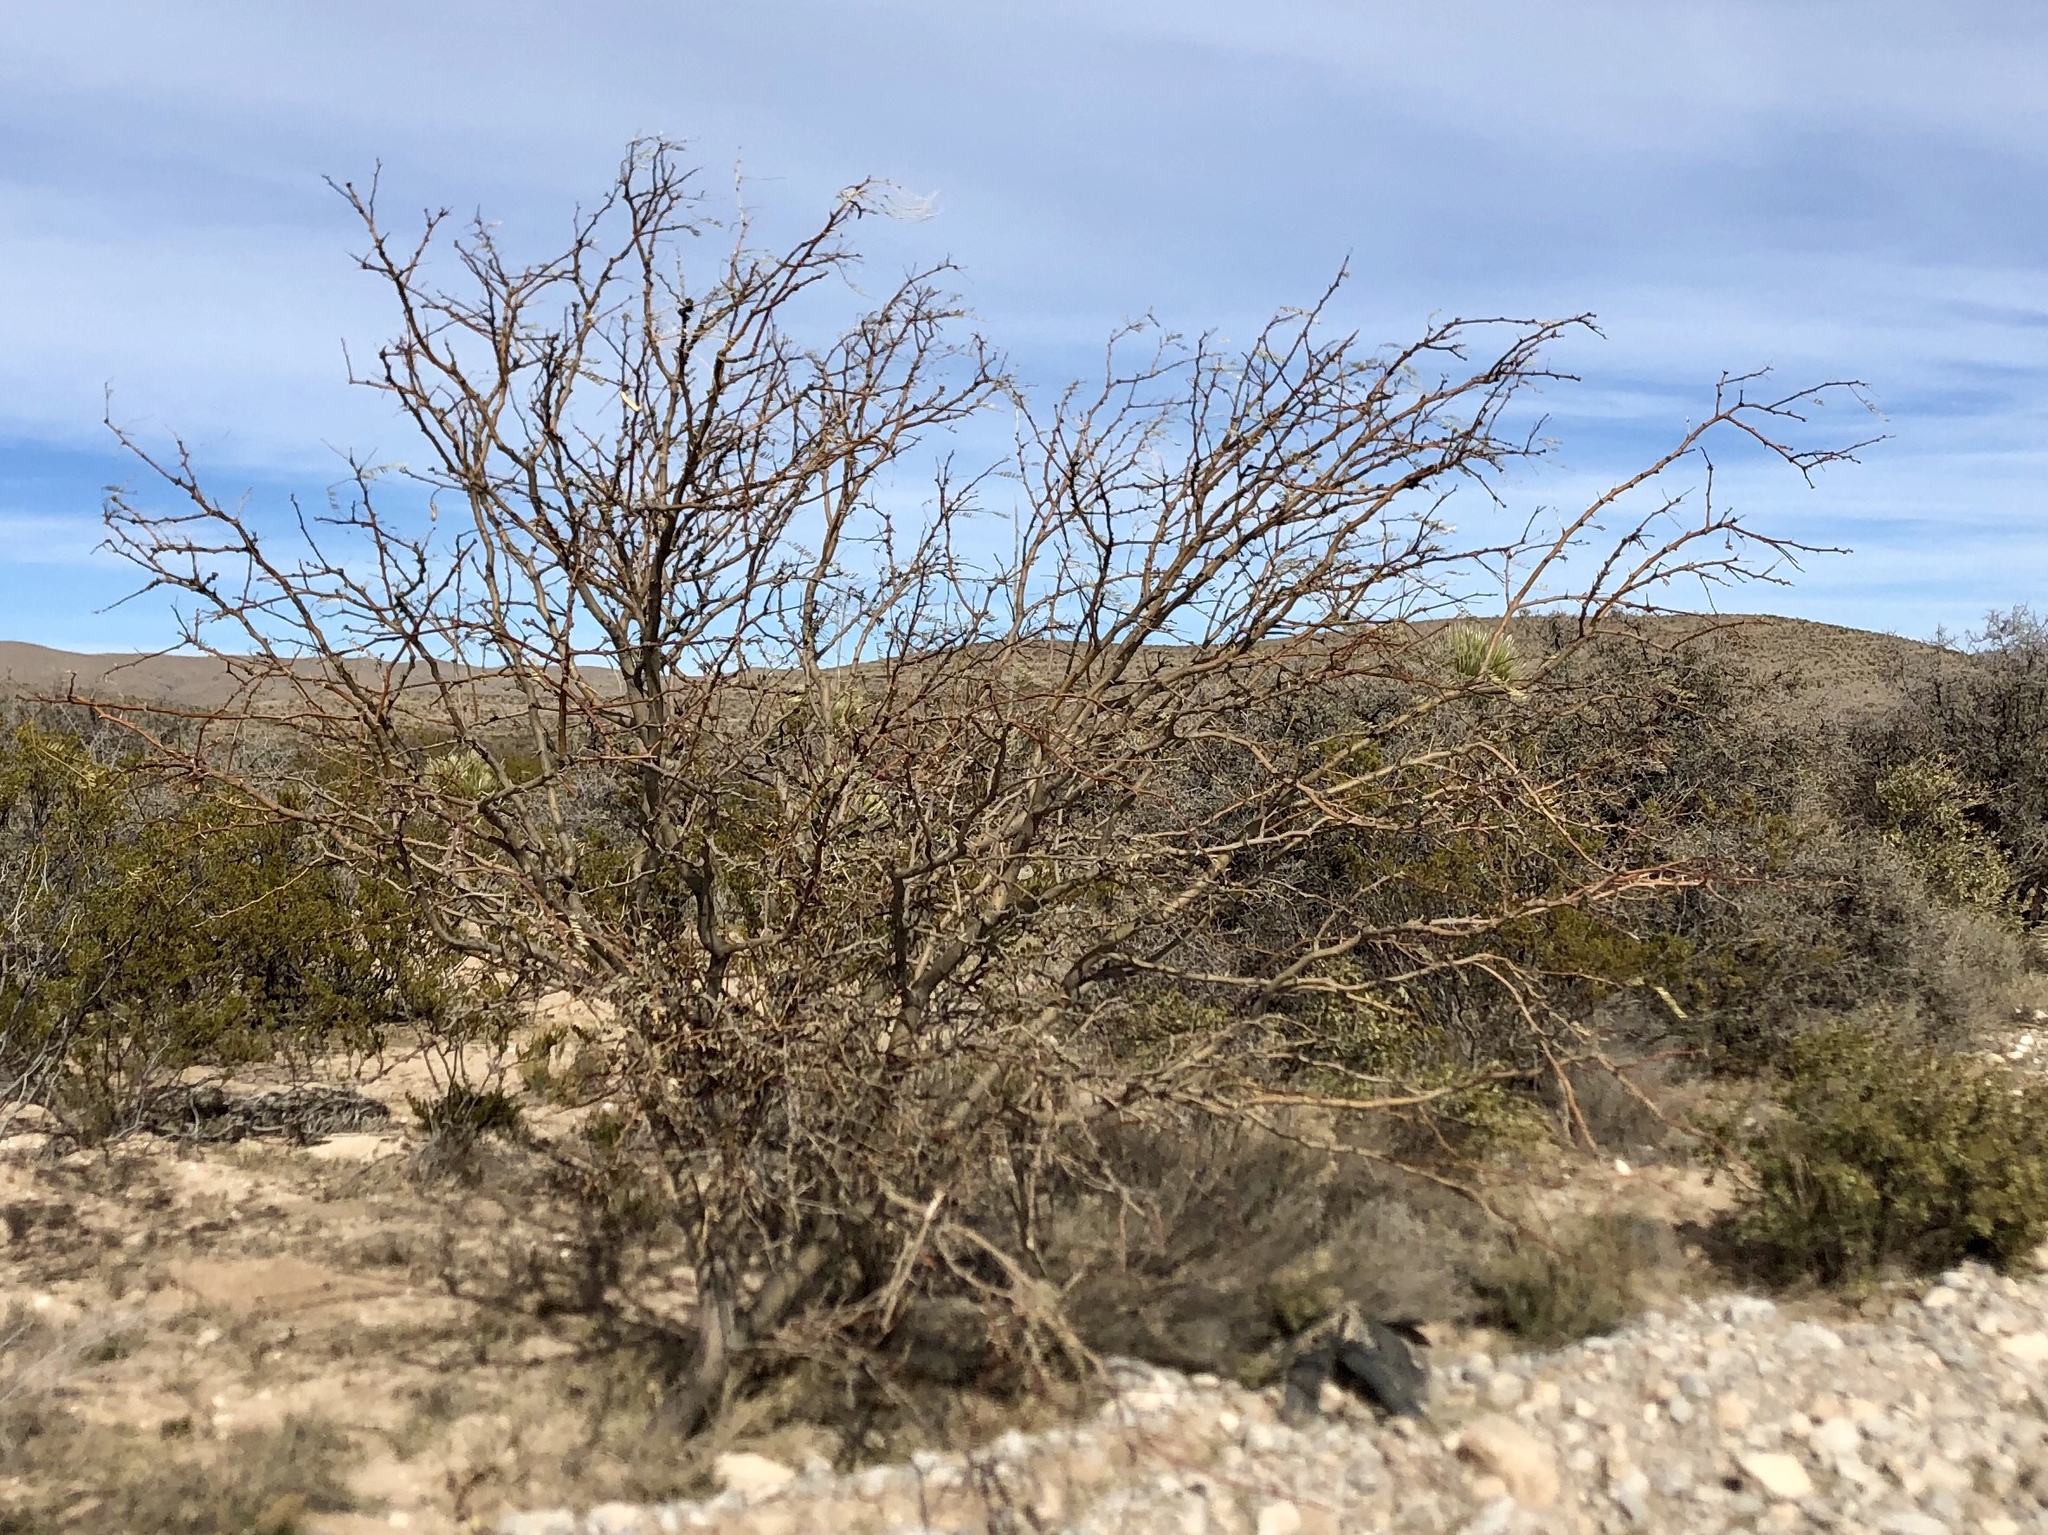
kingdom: Plantae
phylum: Tracheophyta
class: Magnoliopsida
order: Fabales
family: Fabaceae
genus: Prosopis
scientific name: Prosopis glandulosa
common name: Honey mesquite
